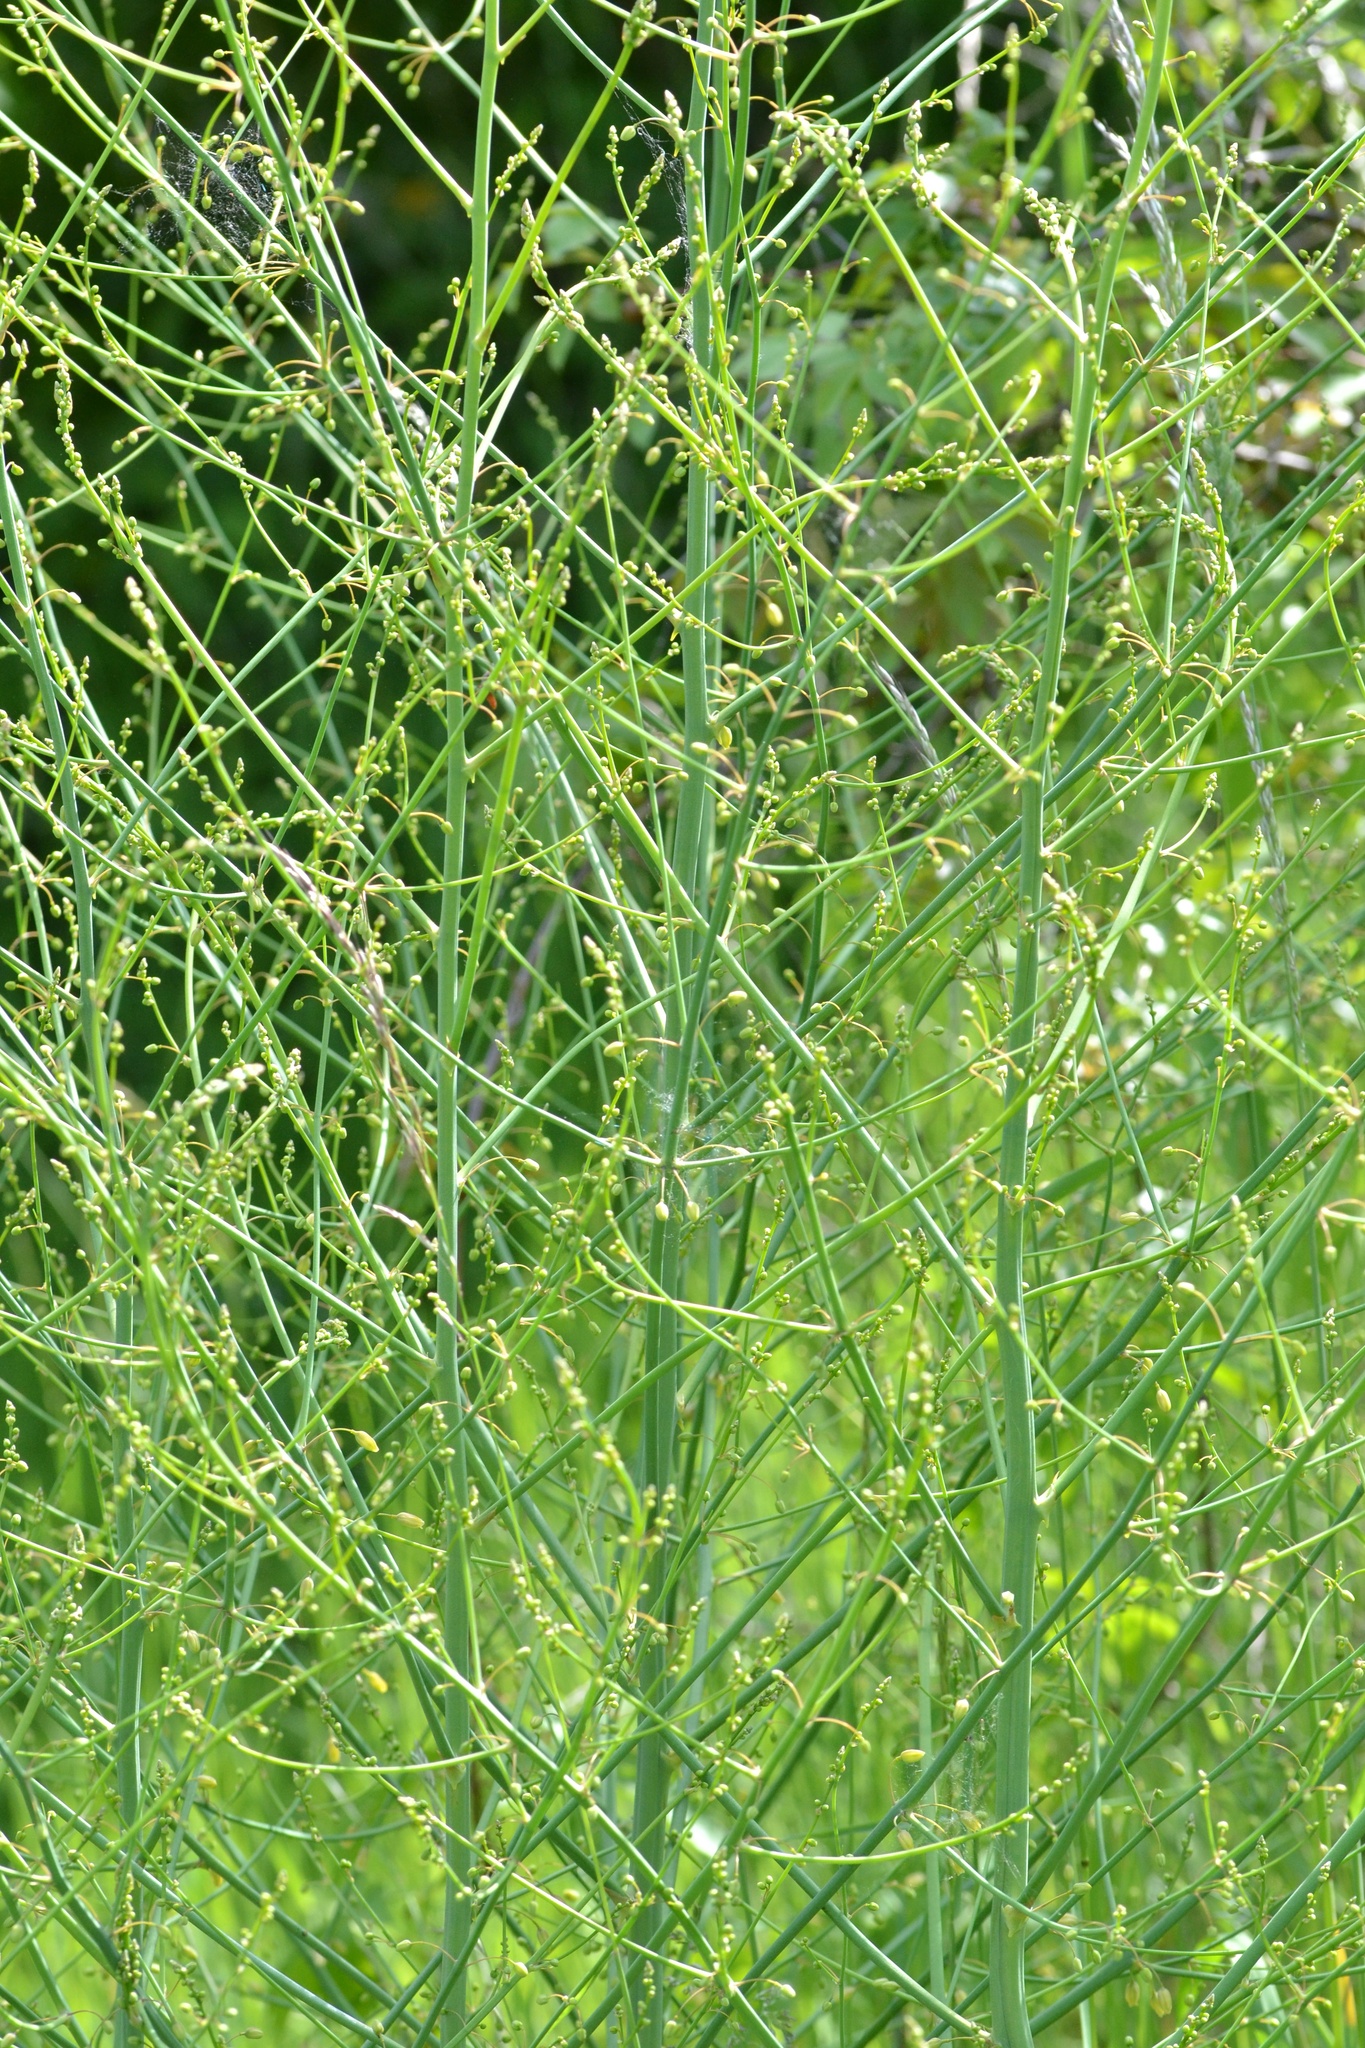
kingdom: Plantae
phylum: Tracheophyta
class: Liliopsida
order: Asparagales
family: Asparagaceae
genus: Asparagus
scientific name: Asparagus officinalis
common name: Garden asparagus
